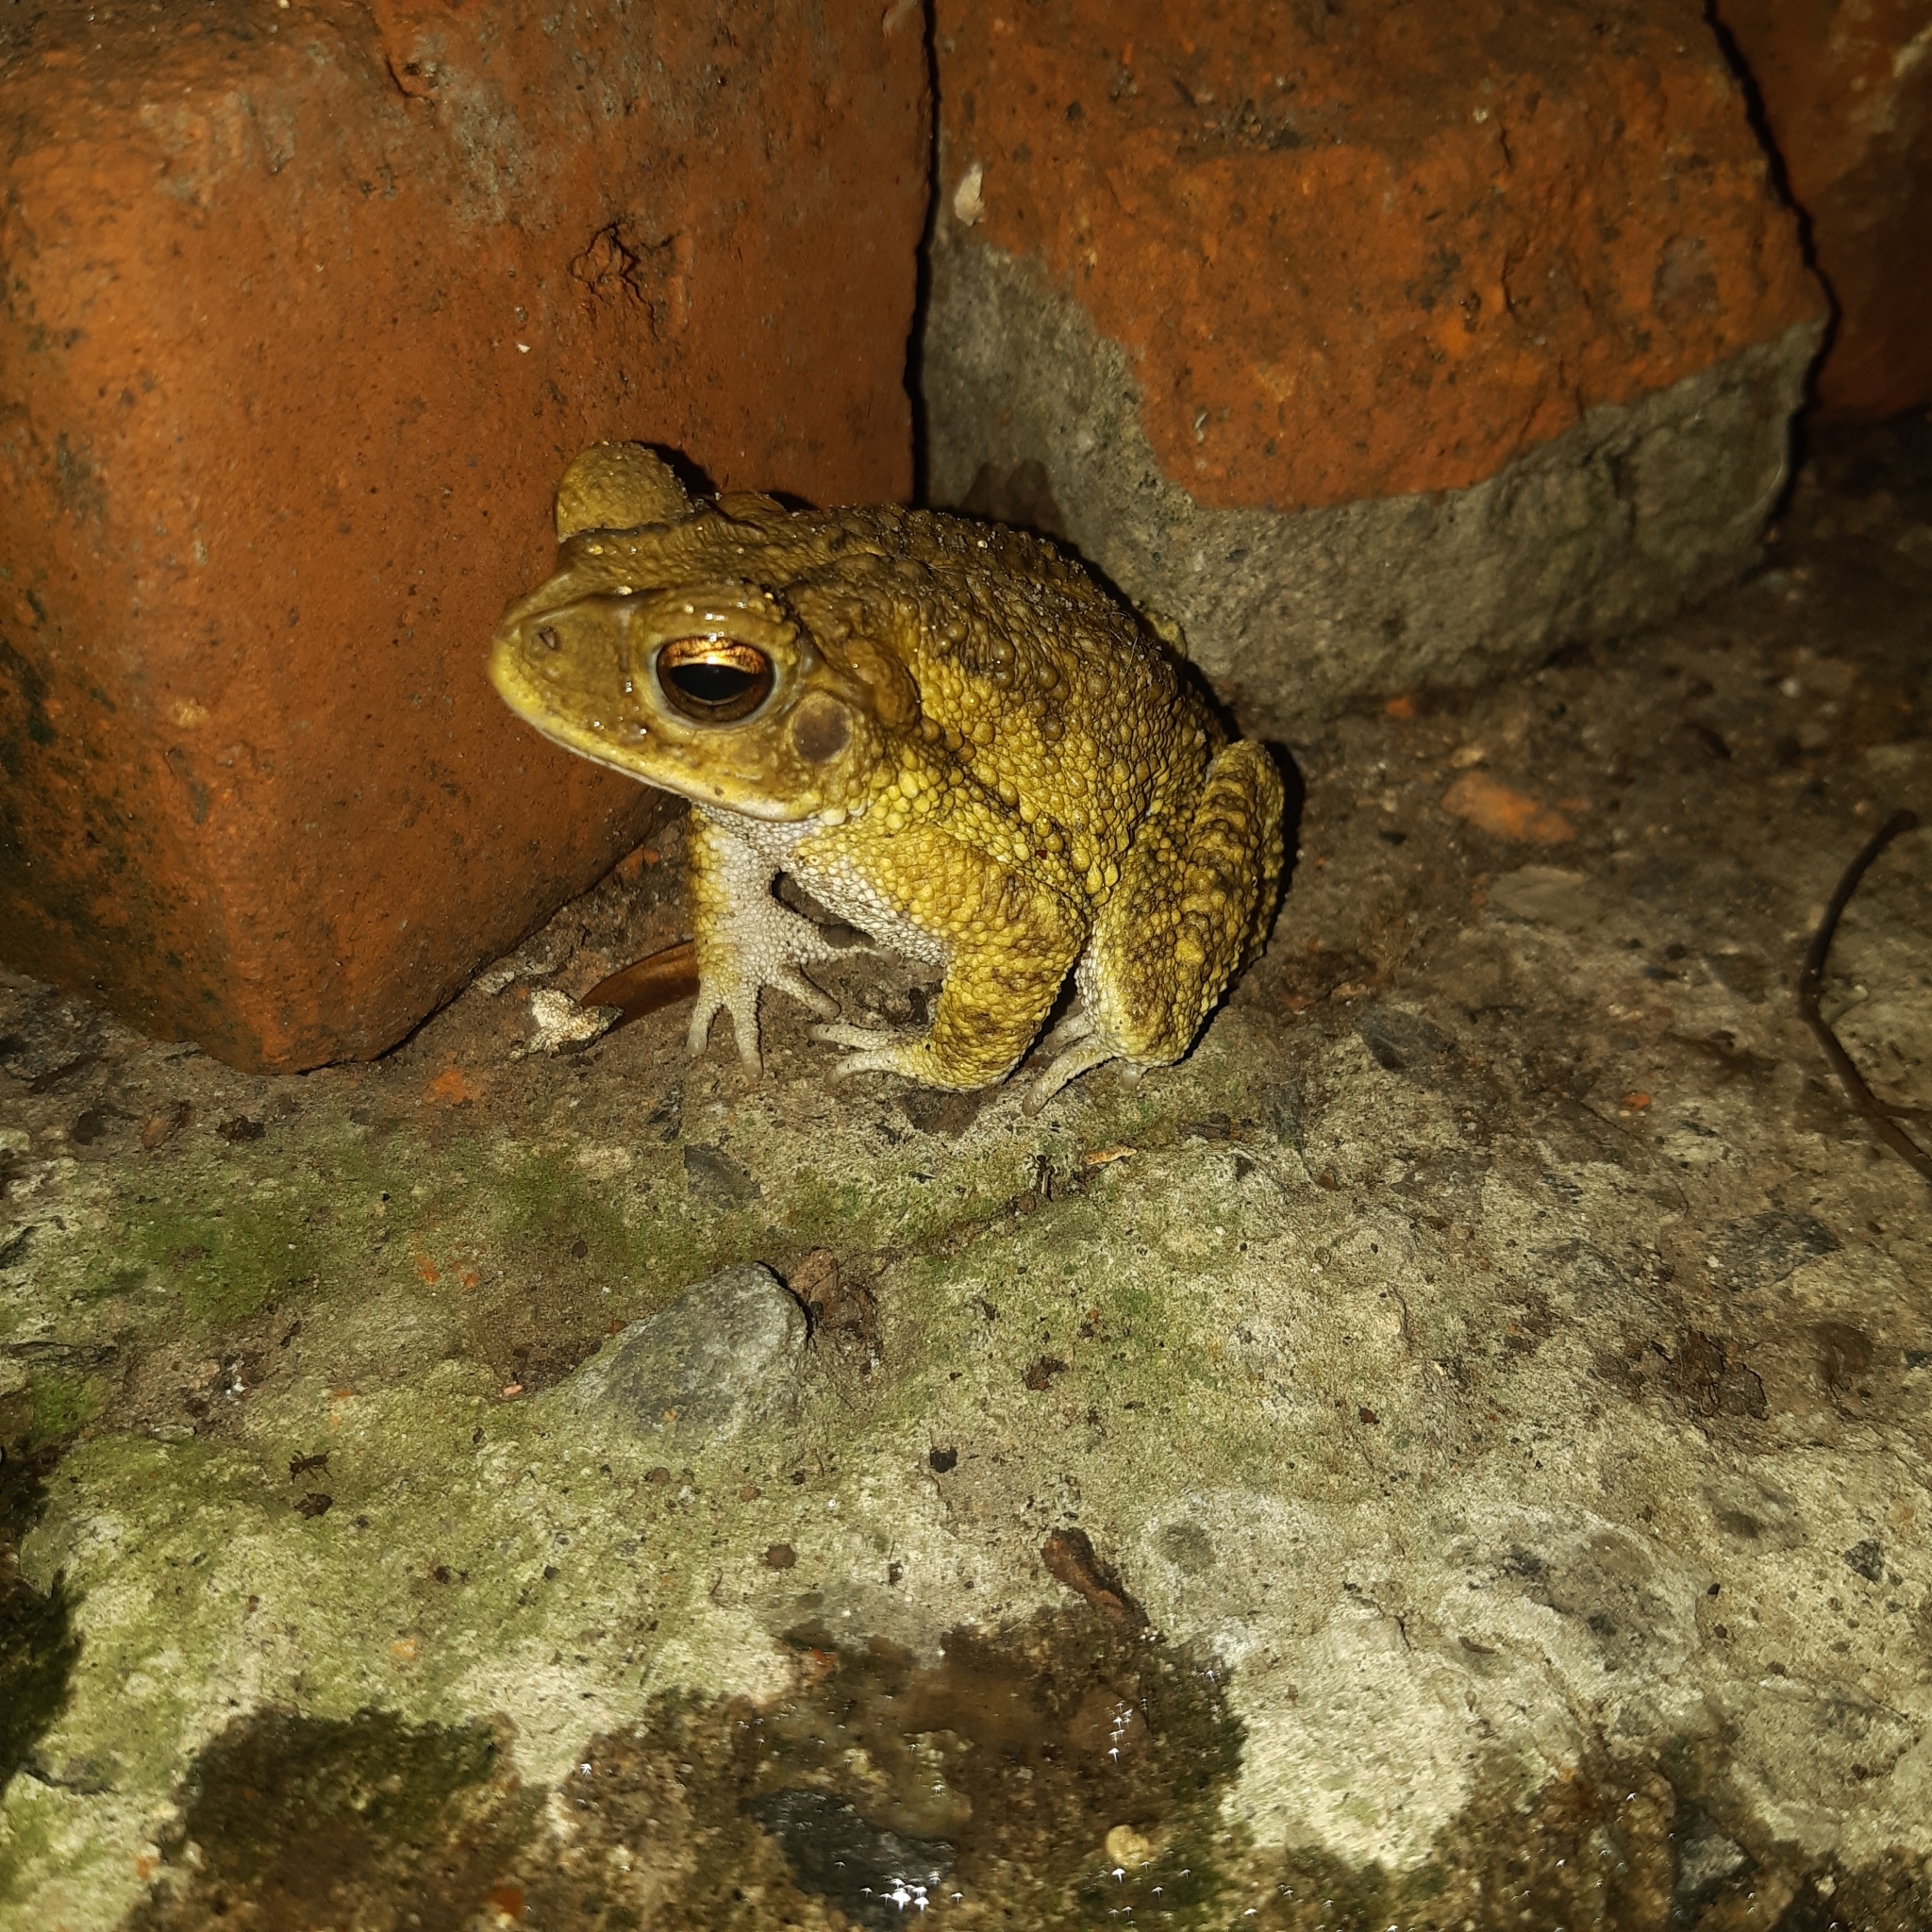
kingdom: Animalia
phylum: Chordata
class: Amphibia
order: Anura
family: Bufonidae
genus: Incilius
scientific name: Incilius luetkenii
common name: Yellow toad
